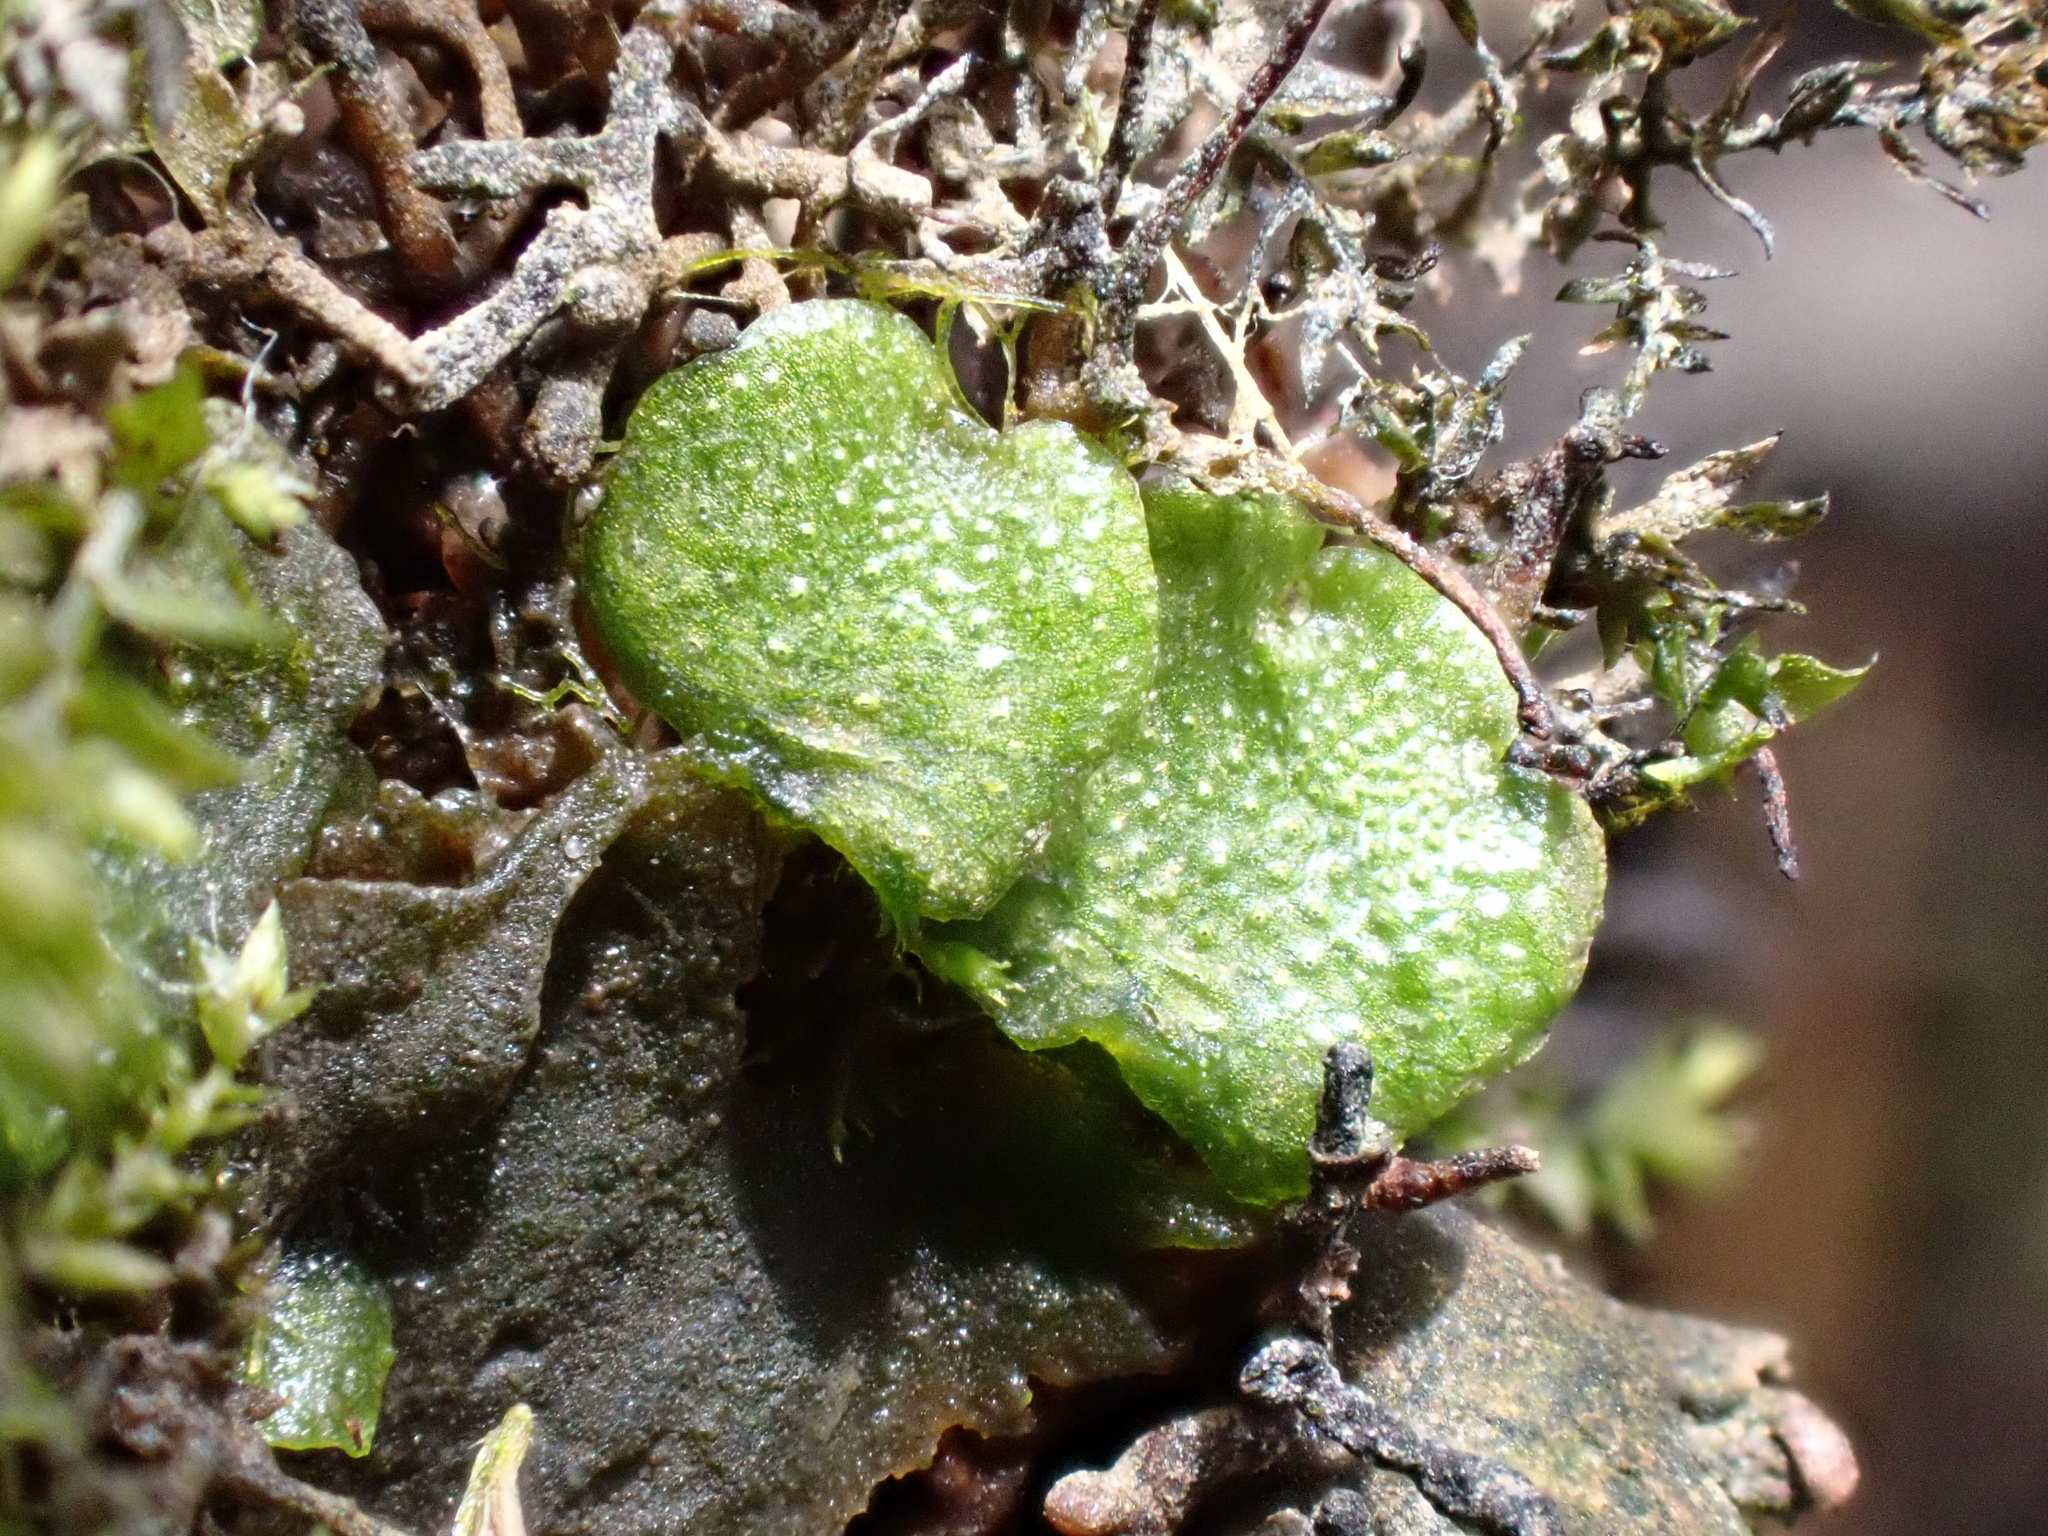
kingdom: Plantae
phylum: Marchantiophyta
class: Marchantiopsida
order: Lunulariales
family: Lunulariaceae
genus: Lunularia
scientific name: Lunularia cruciata
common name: Crescent-cup liverwort
